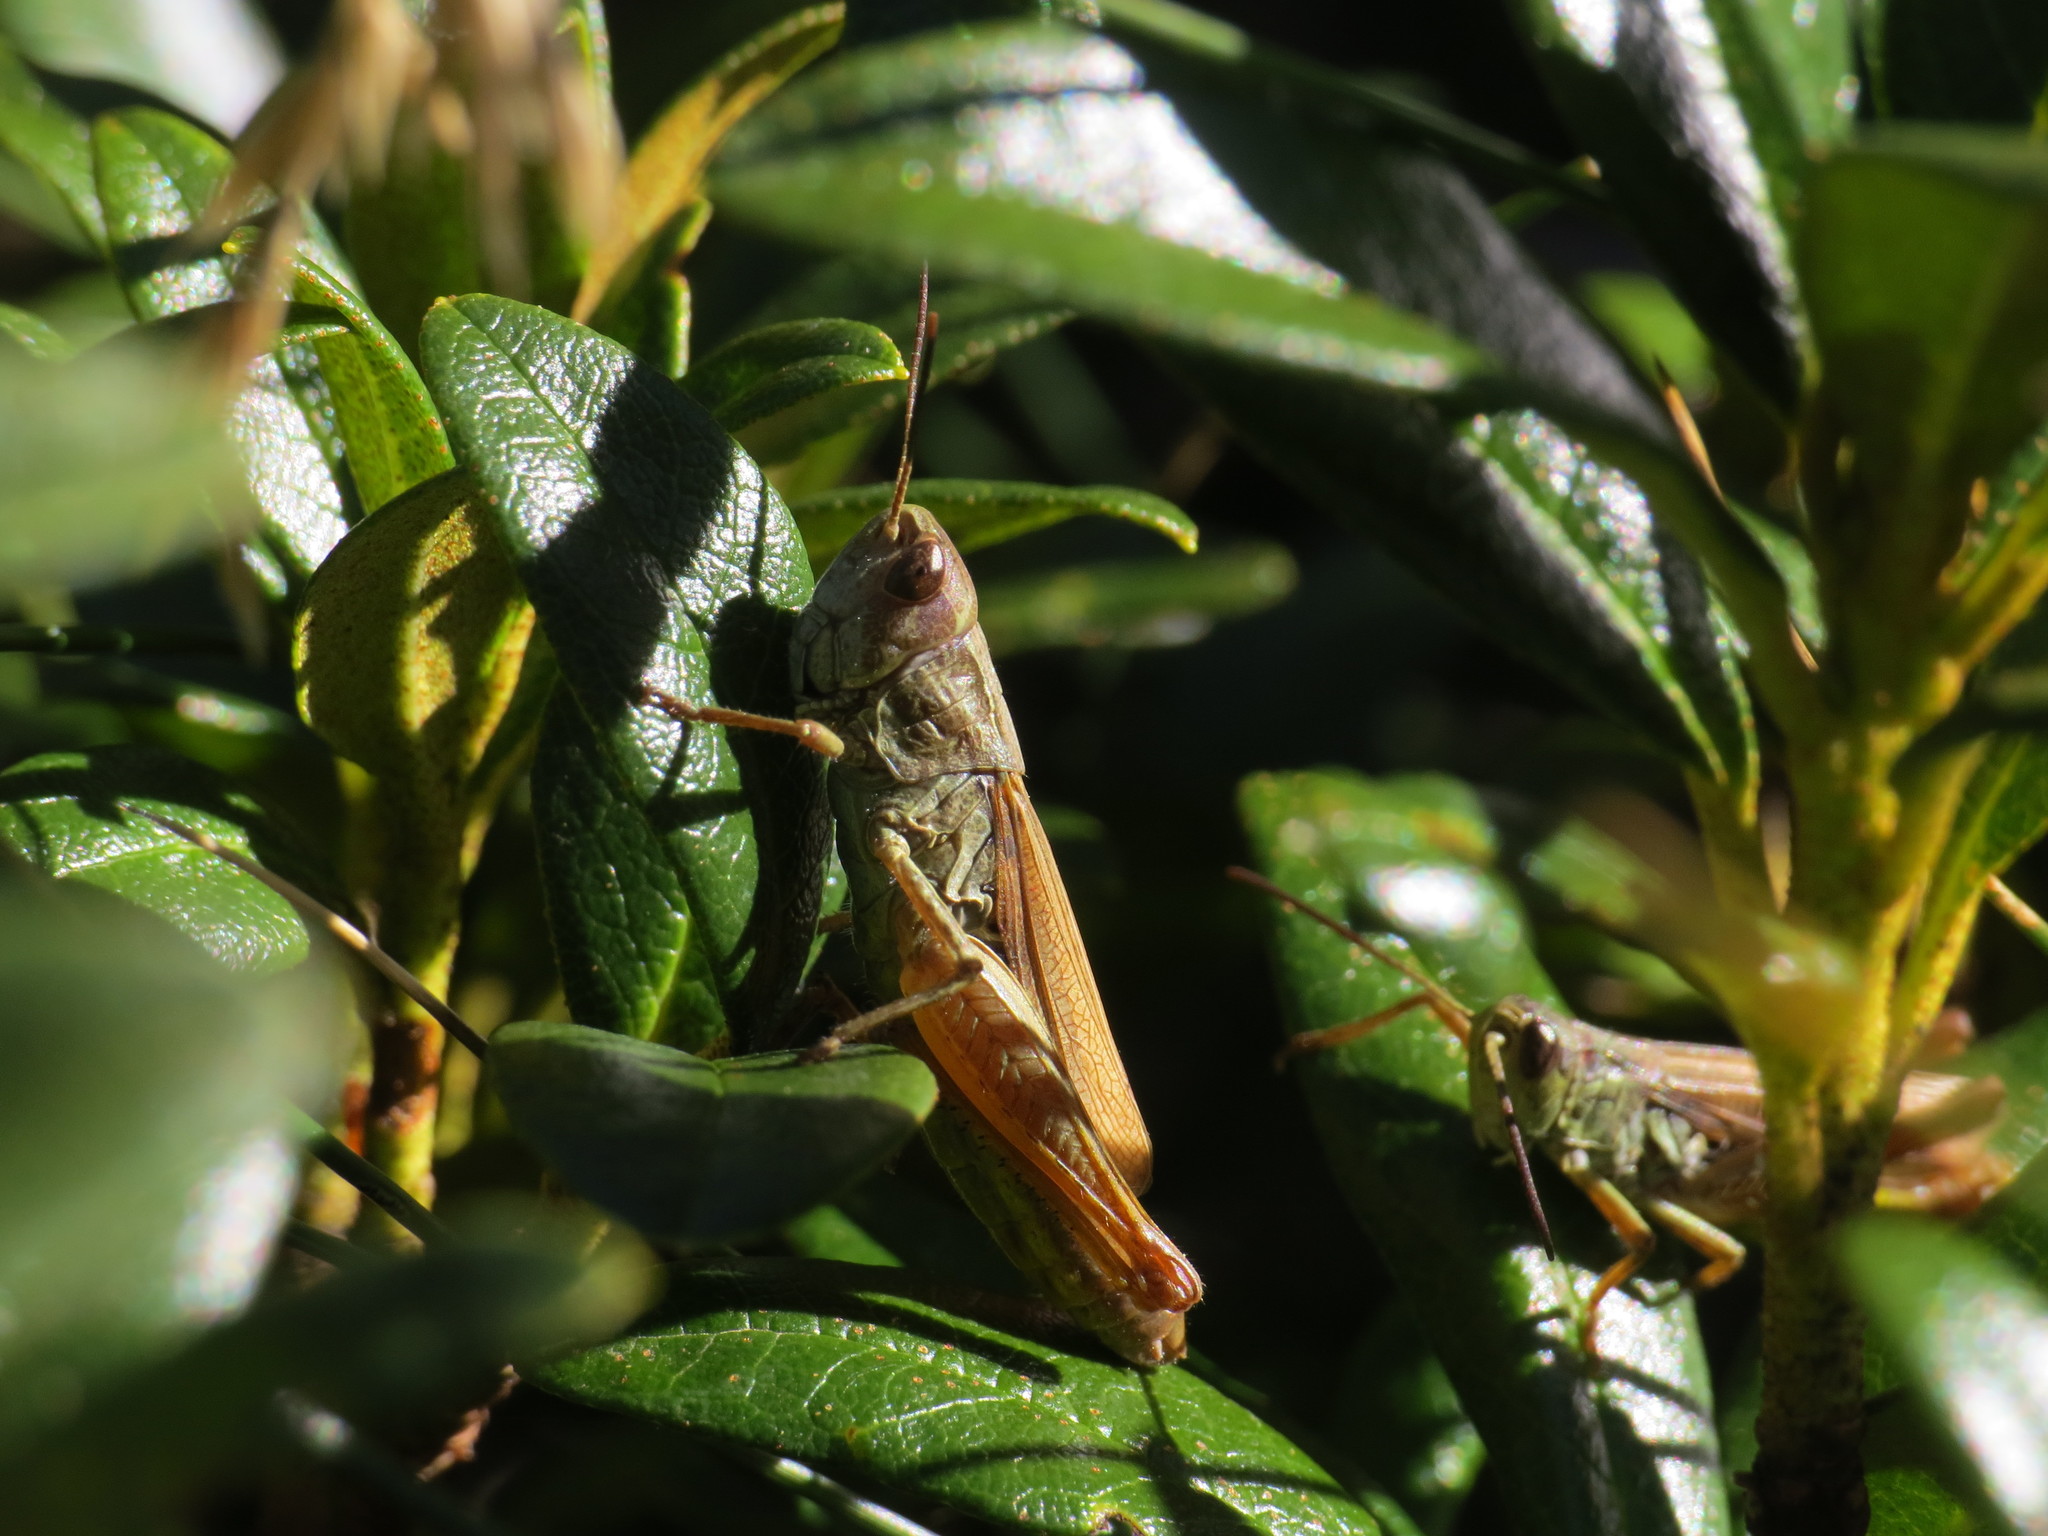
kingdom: Animalia
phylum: Arthropoda
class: Insecta
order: Orthoptera
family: Acrididae
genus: Chorthippus
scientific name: Chorthippus apricarius
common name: Upland field grasshopper
